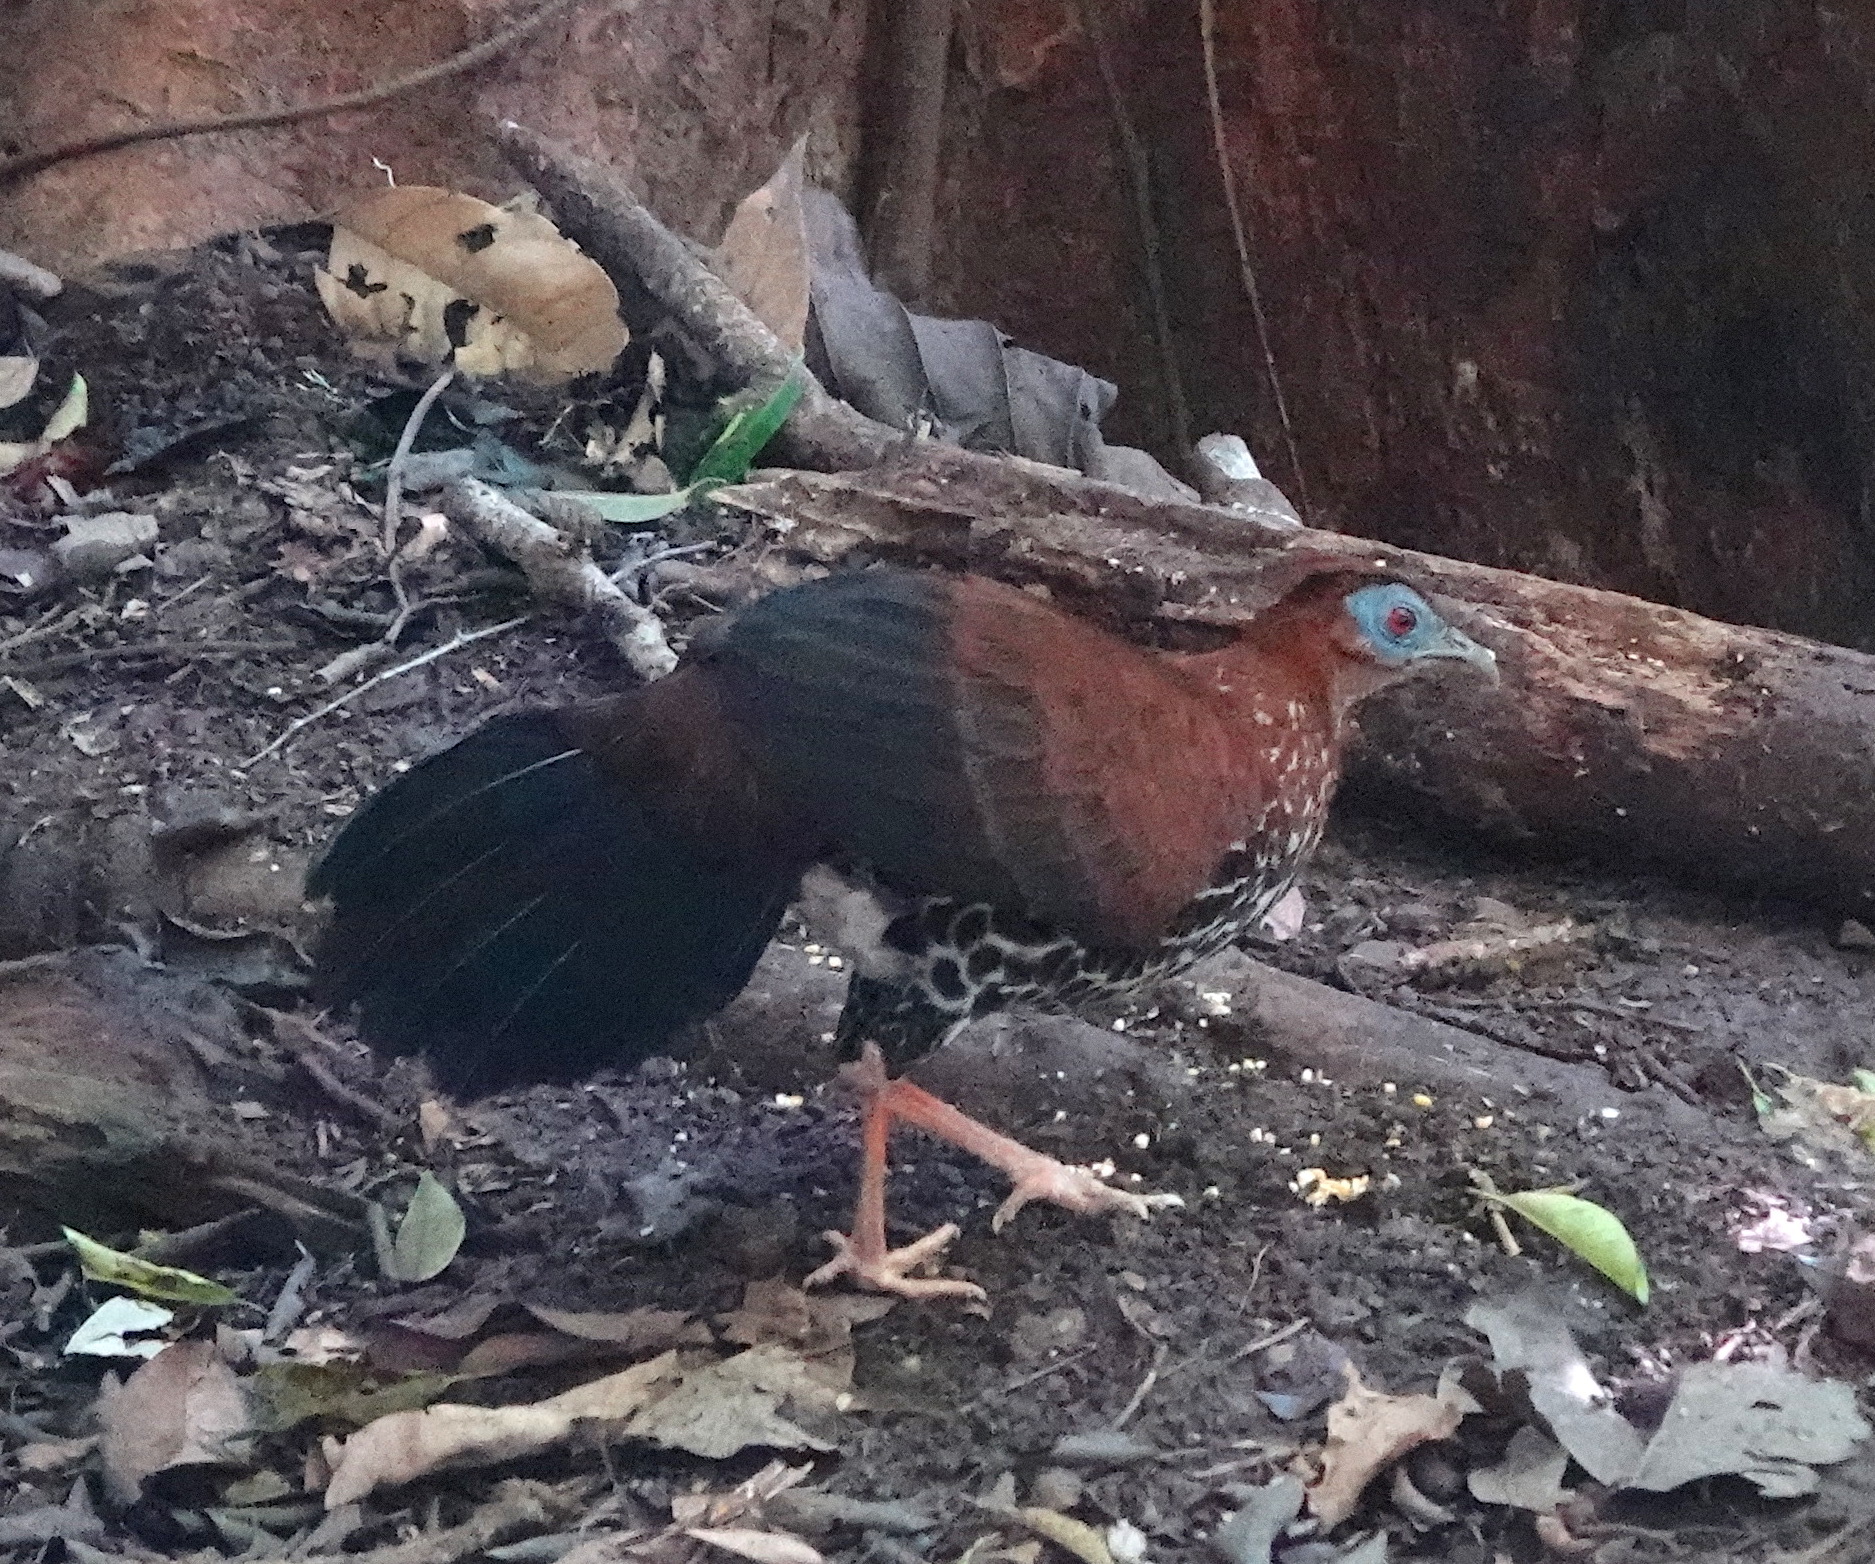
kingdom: Animalia
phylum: Chordata
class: Aves
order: Galliformes
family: Phasianidae
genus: Lophura
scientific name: Lophura ignita
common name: Crested fireback
